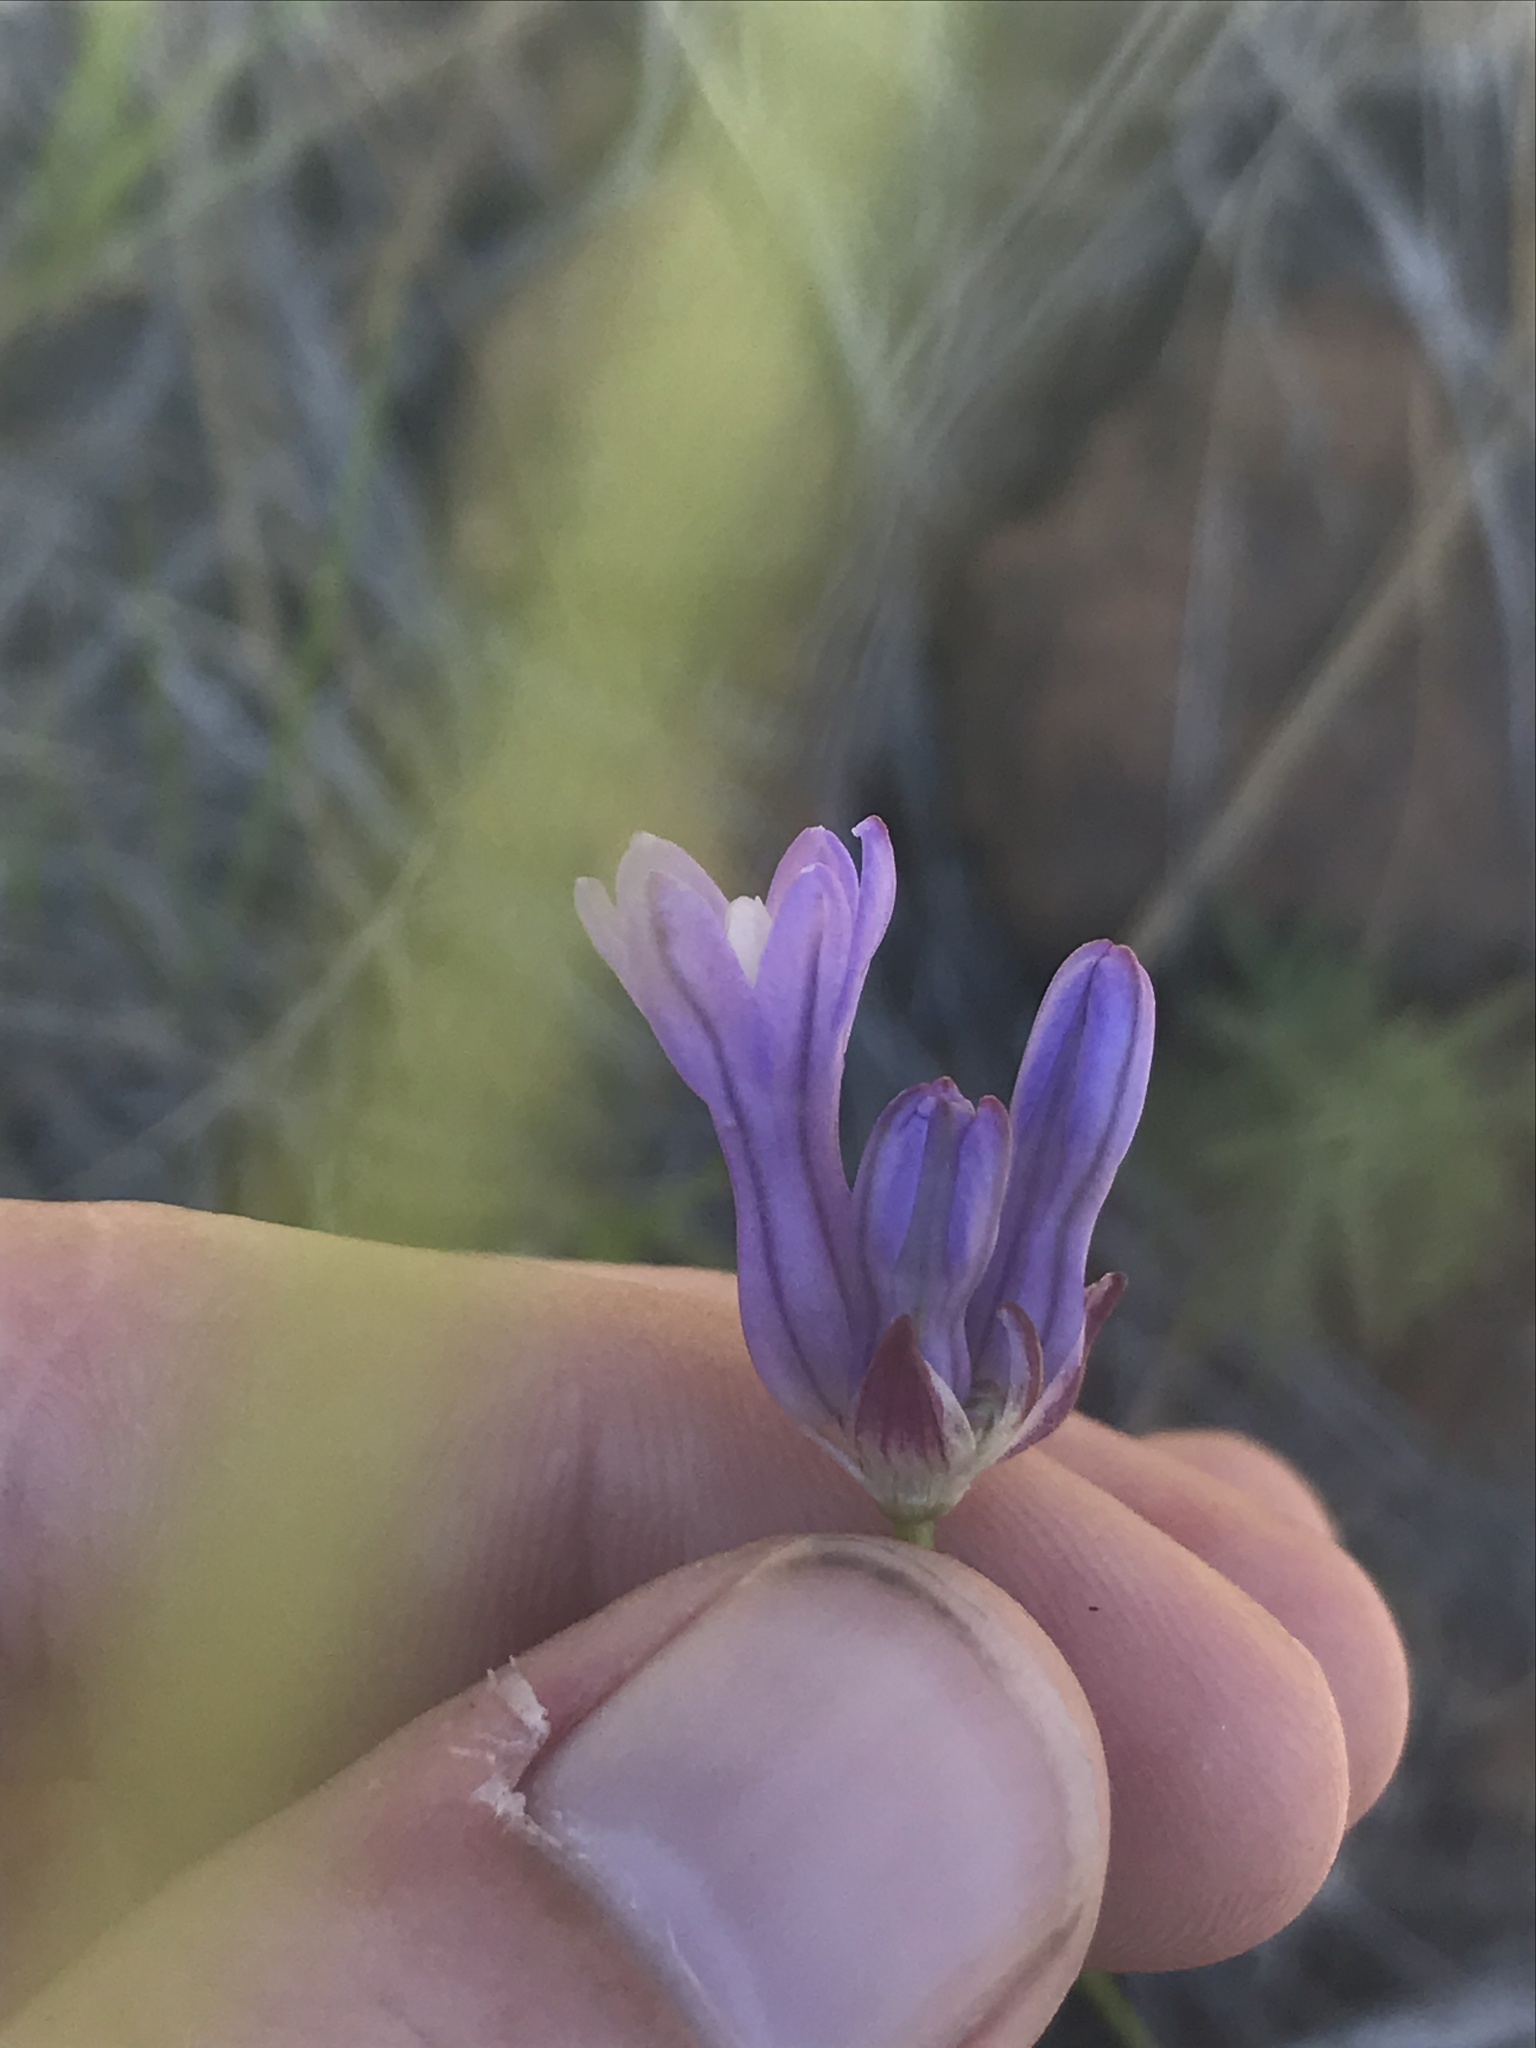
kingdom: Plantae
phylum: Tracheophyta
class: Liliopsida
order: Asparagales
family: Asparagaceae
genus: Dichelostemma
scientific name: Dichelostemma multiflorum
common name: Round-tooth ookow
